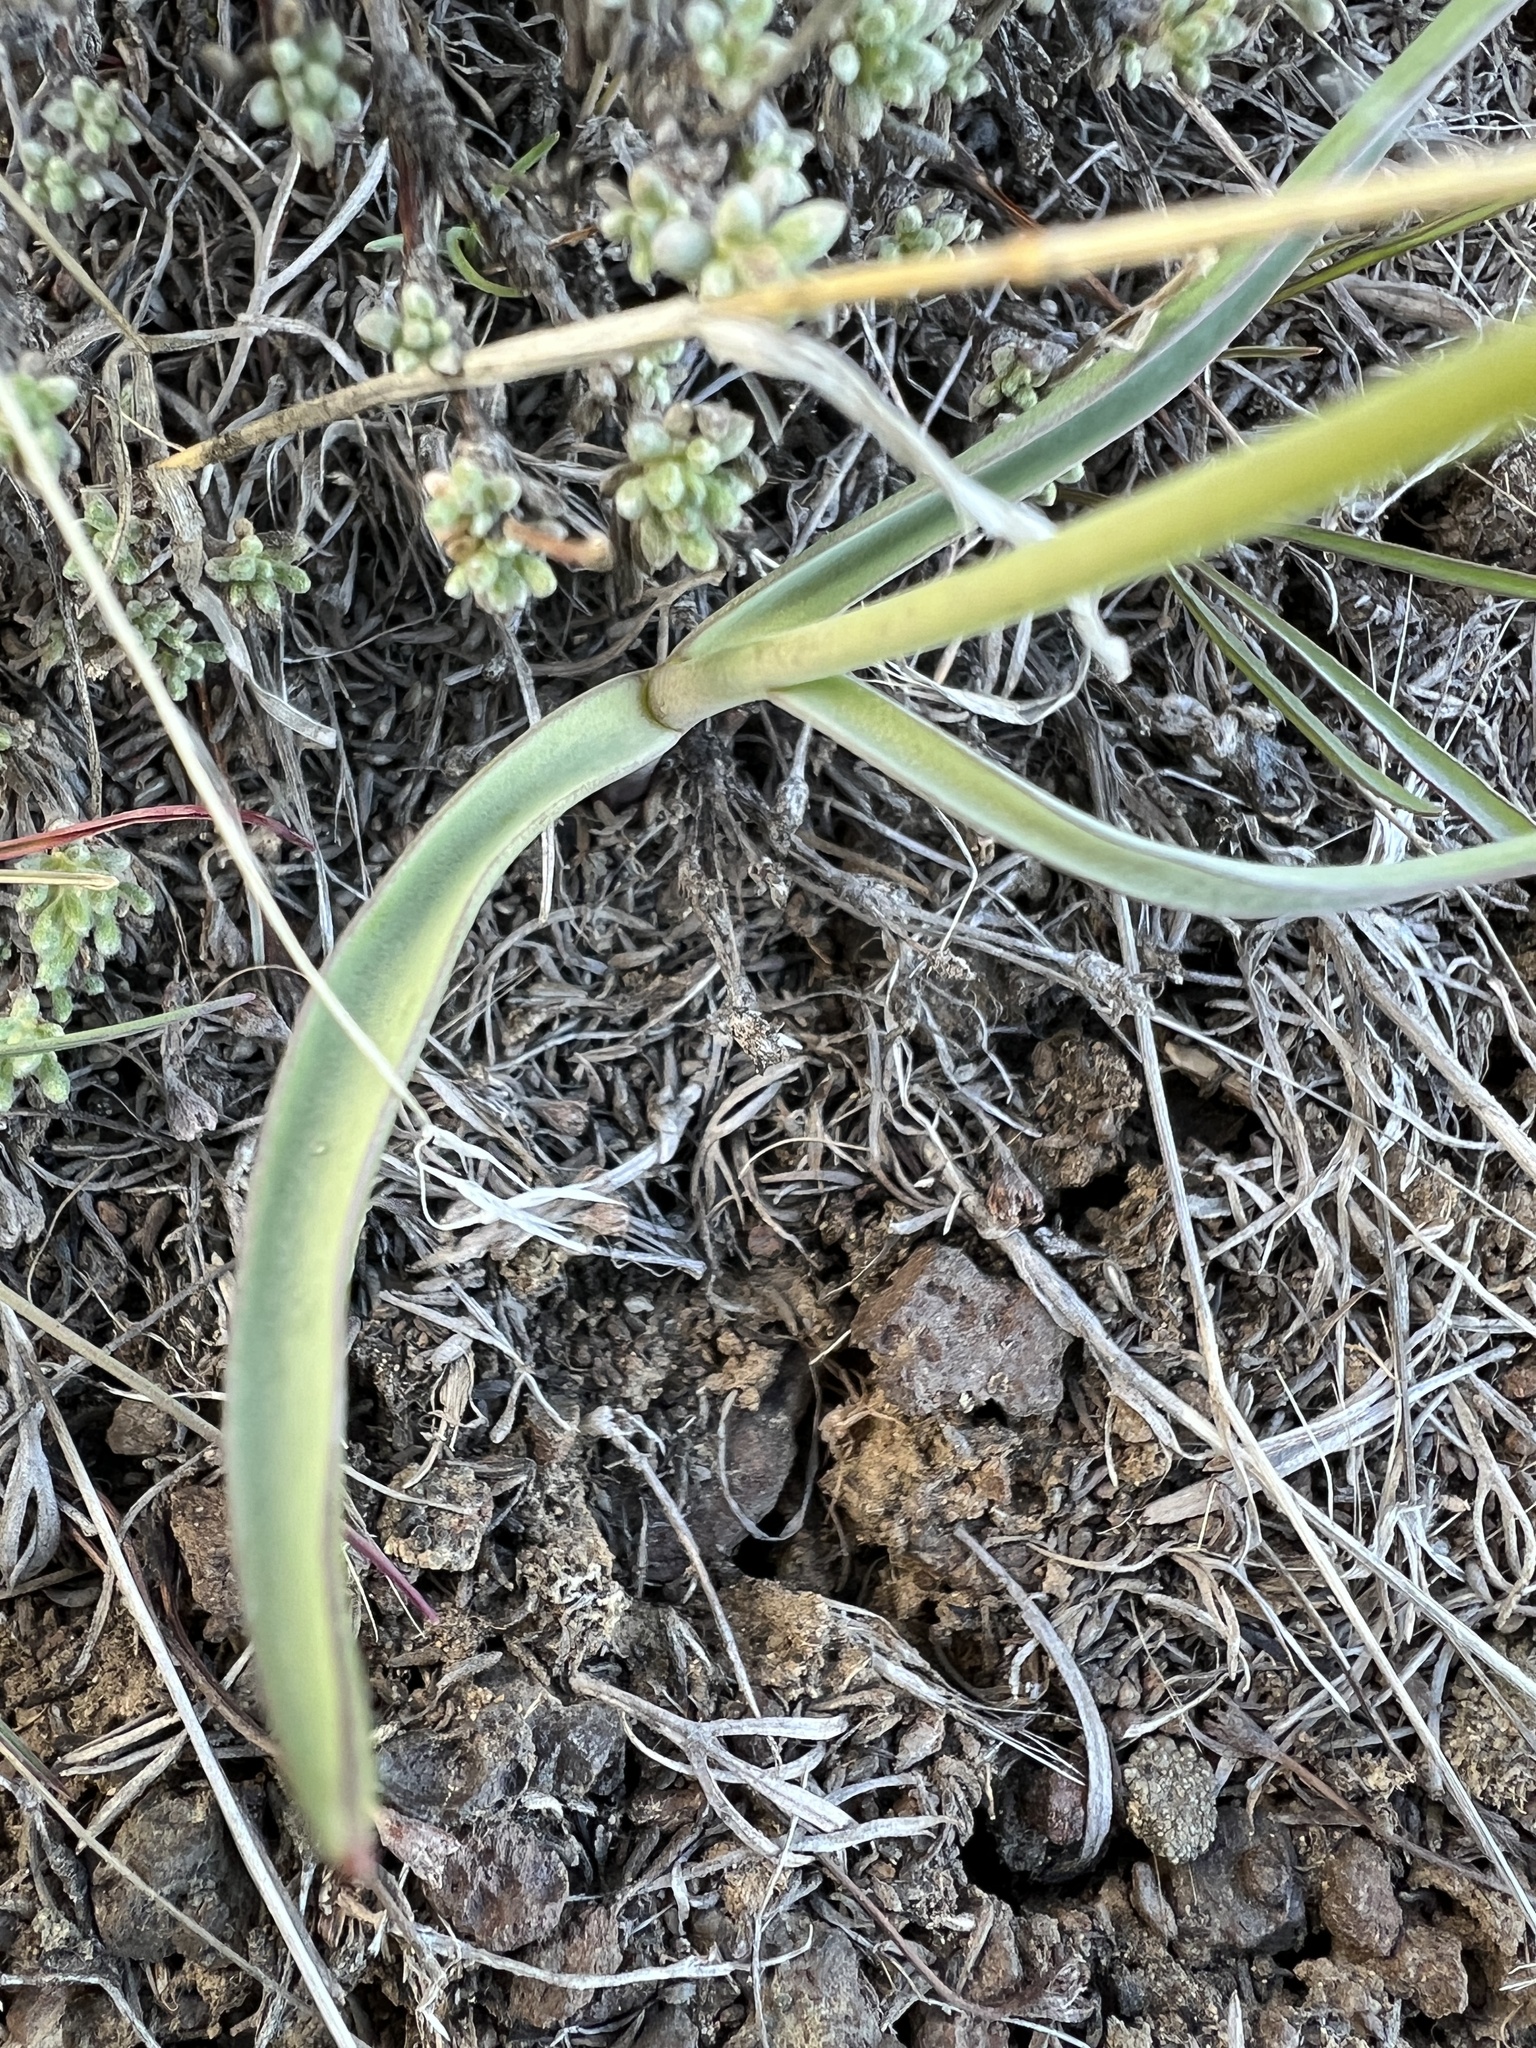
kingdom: Plantae
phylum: Tracheophyta
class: Liliopsida
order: Liliales
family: Liliaceae
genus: Fritillaria
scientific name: Fritillaria pudica
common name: Yellow fritillary
